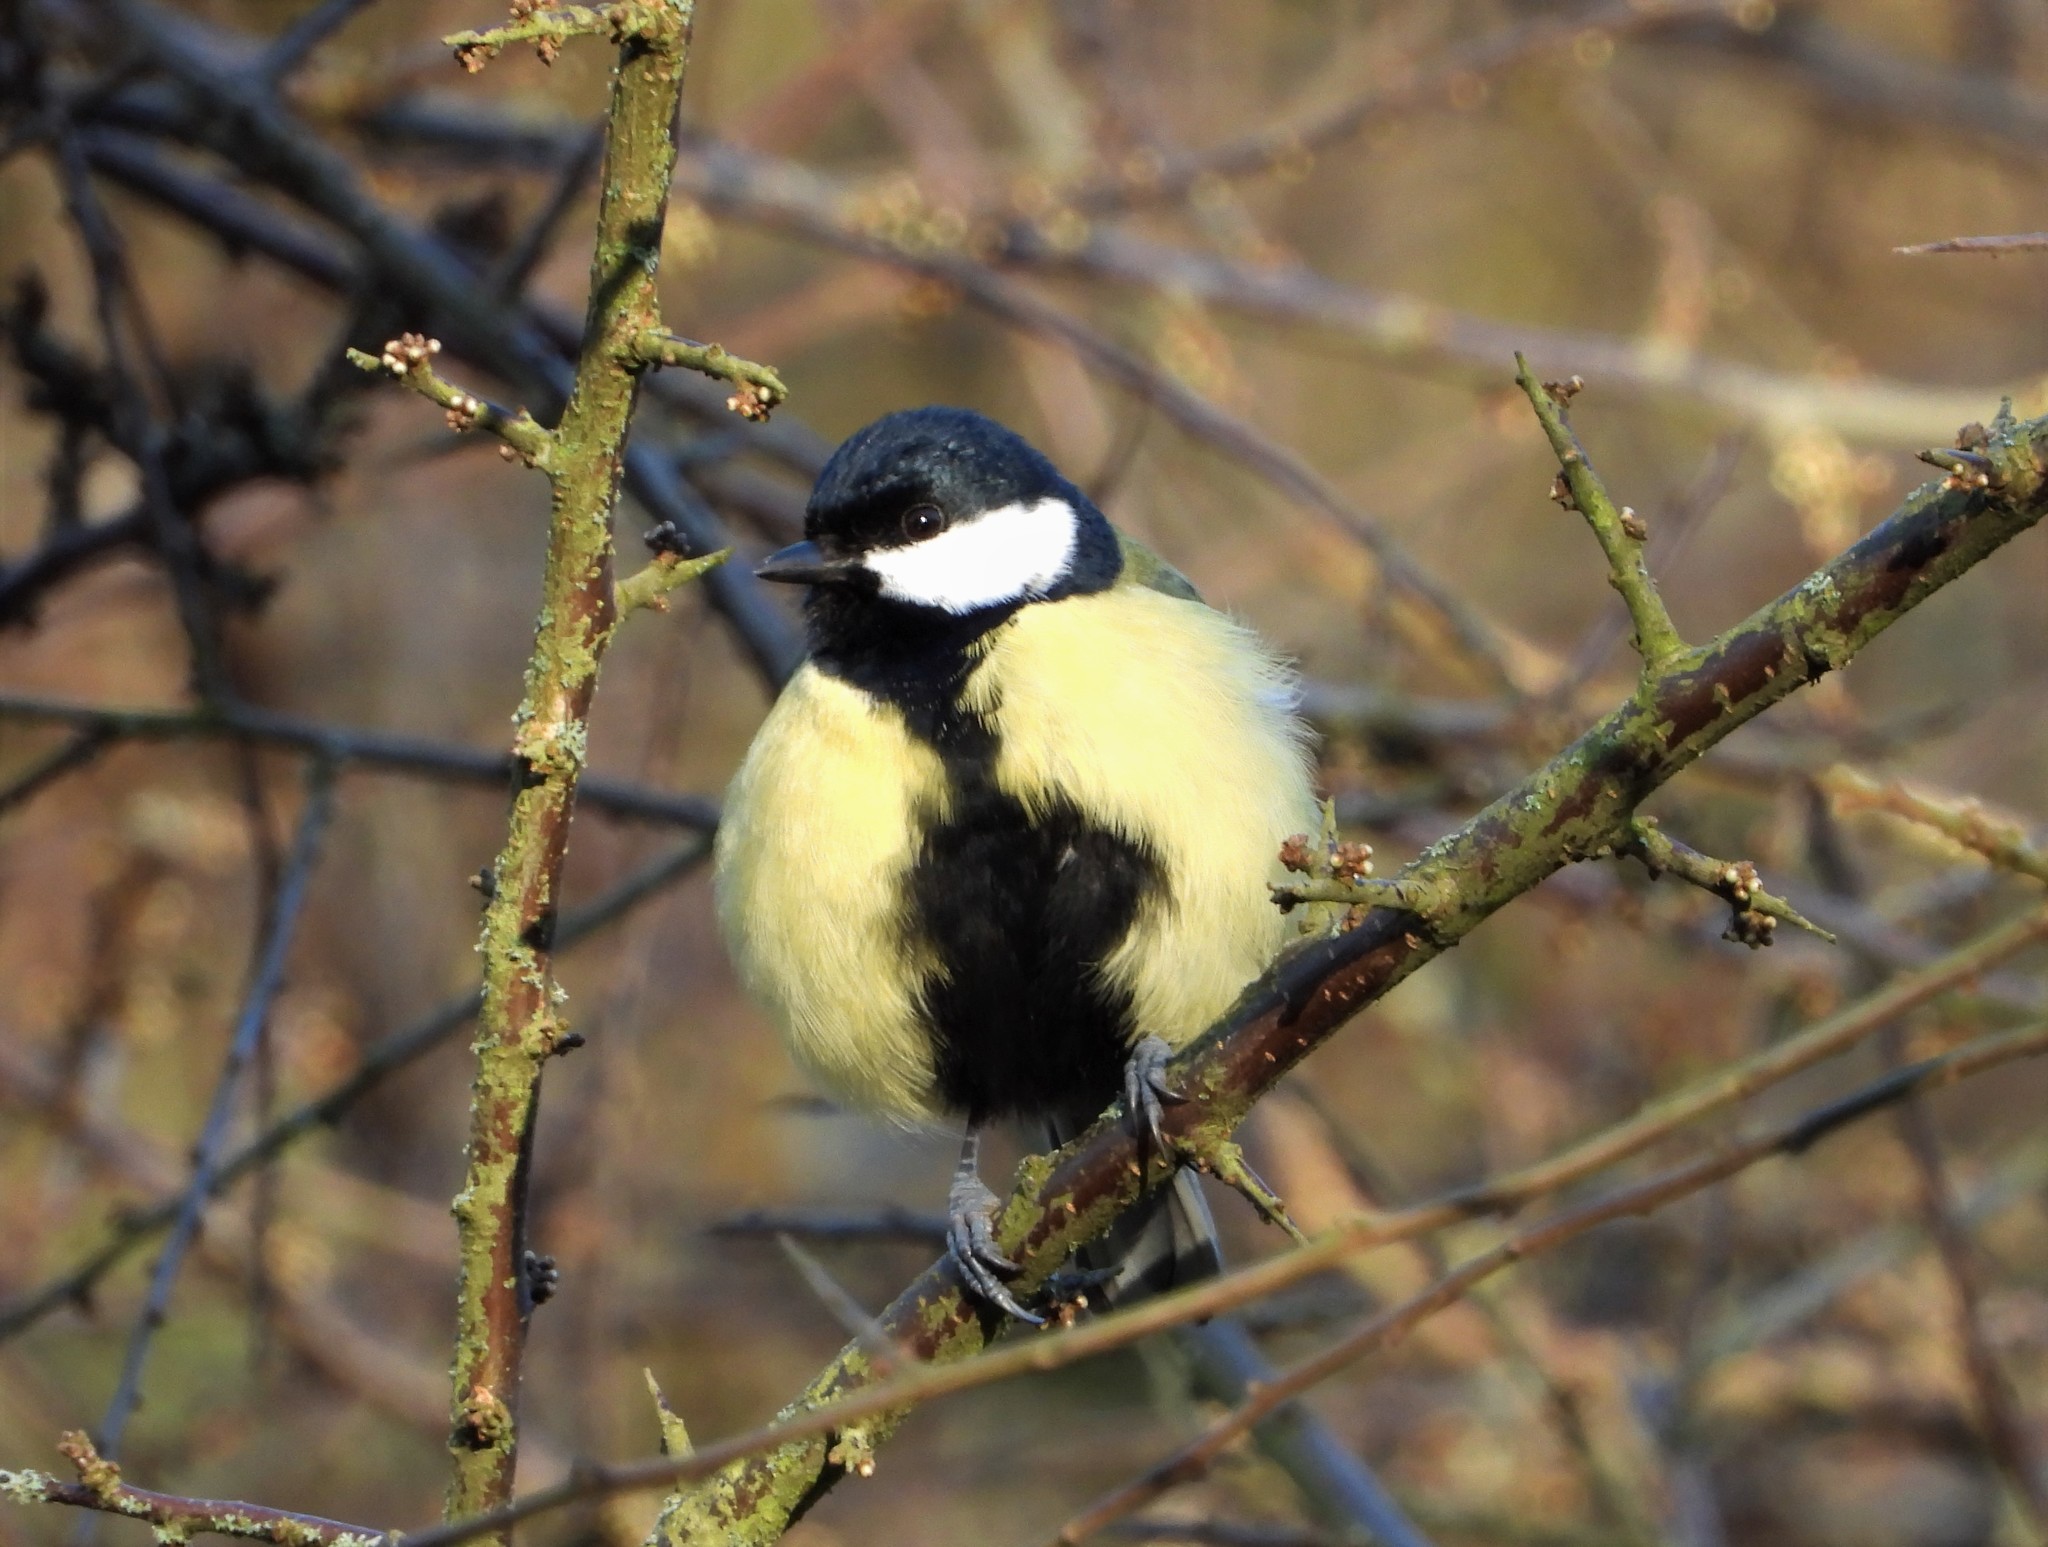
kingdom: Animalia
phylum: Chordata
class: Aves
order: Passeriformes
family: Paridae
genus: Parus
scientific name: Parus major
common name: Great tit
